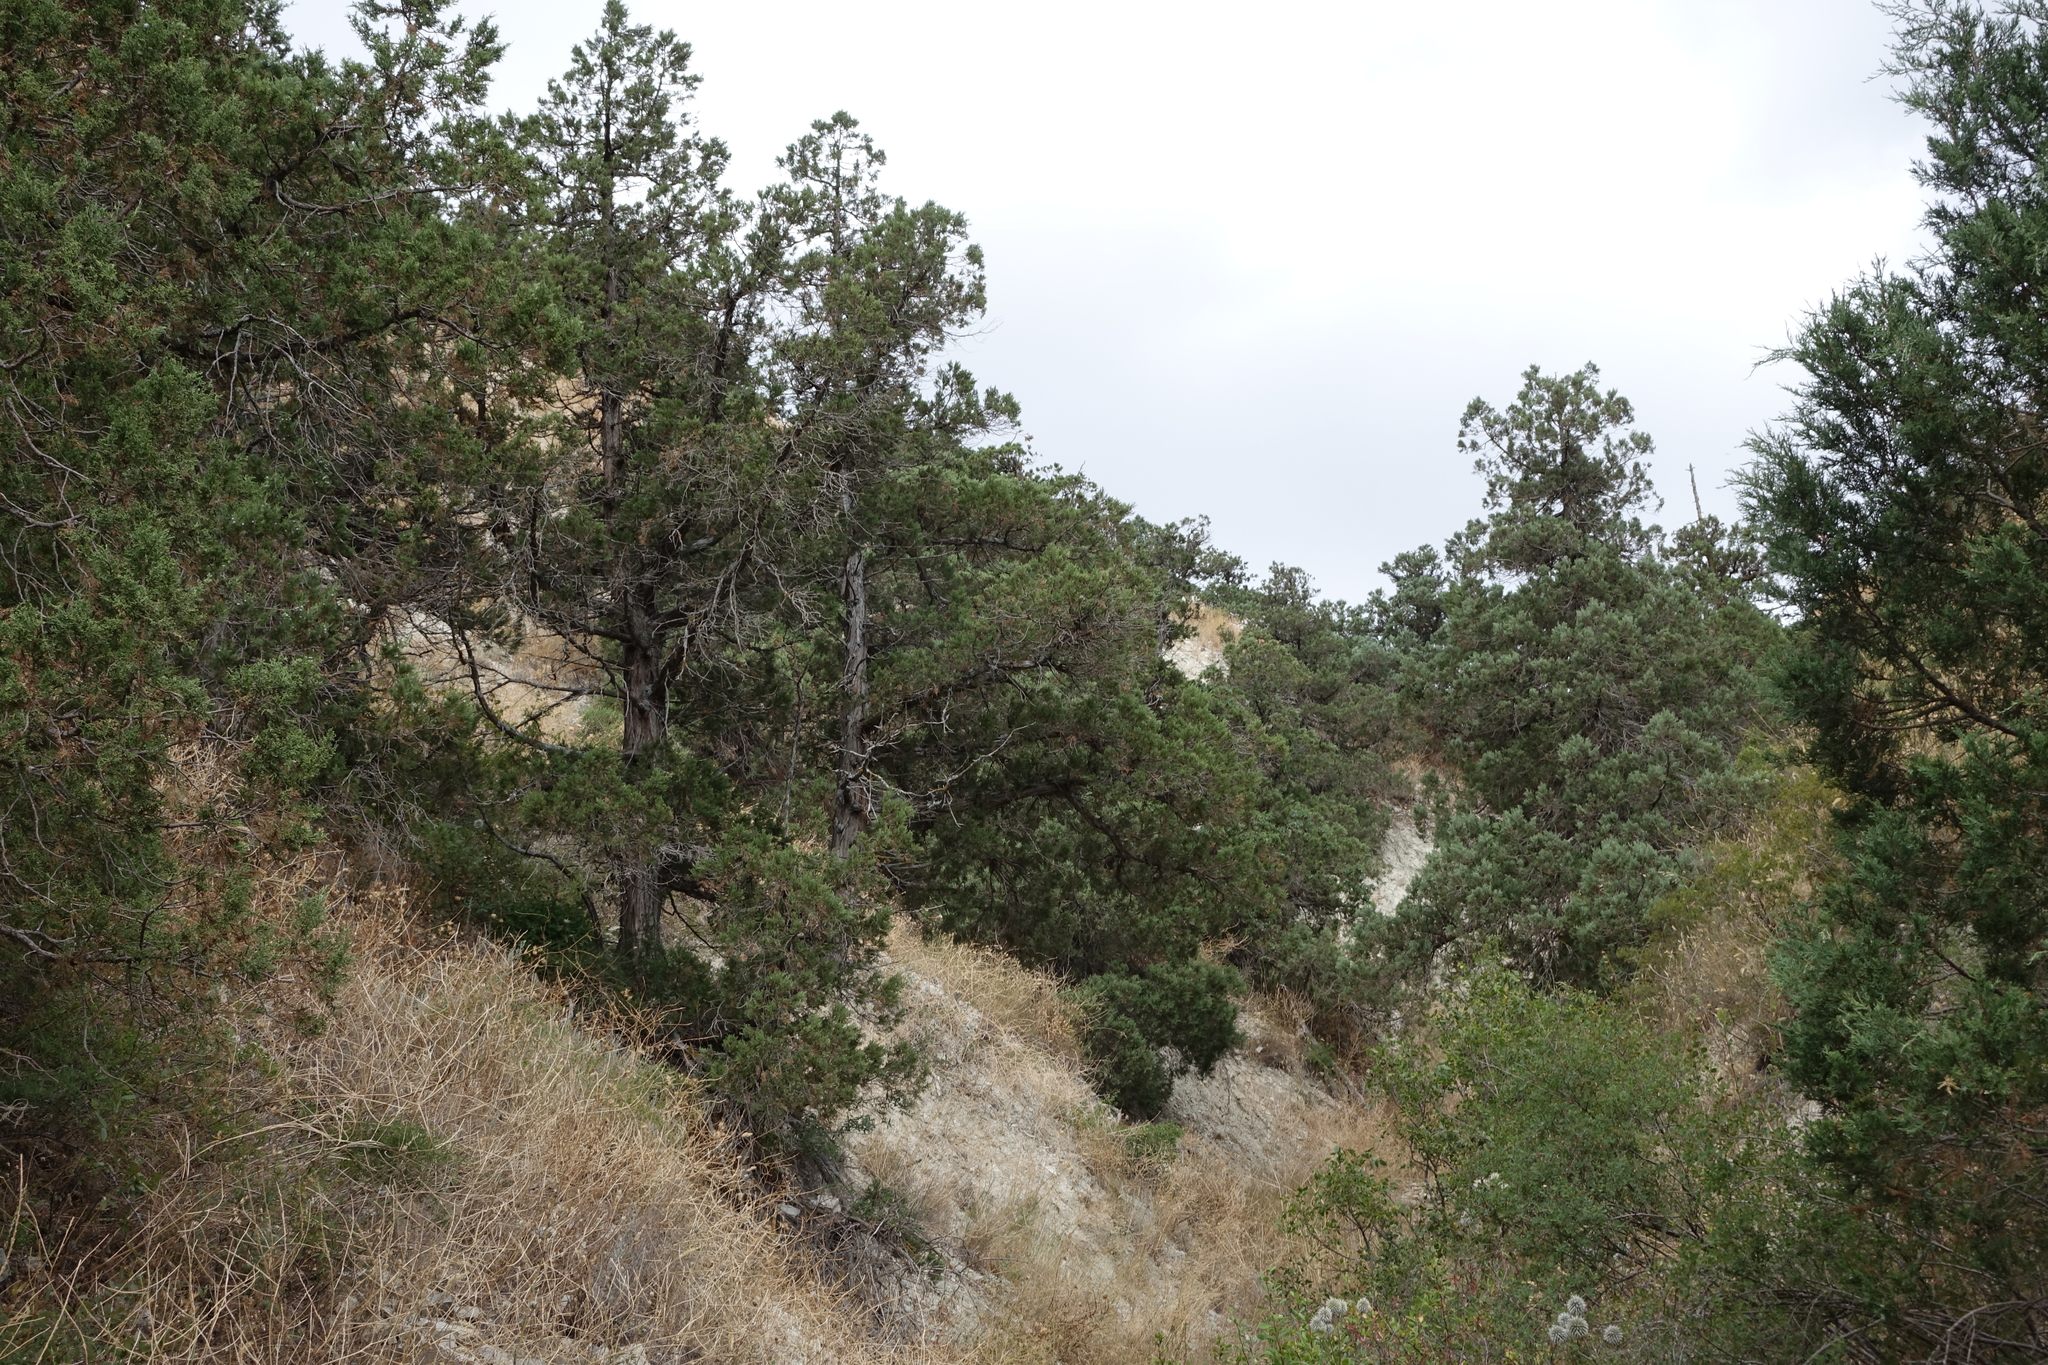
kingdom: Plantae
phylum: Tracheophyta
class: Pinopsida
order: Pinales
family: Cupressaceae
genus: Juniperus
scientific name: Juniperus excelsa
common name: Crimean juniper
